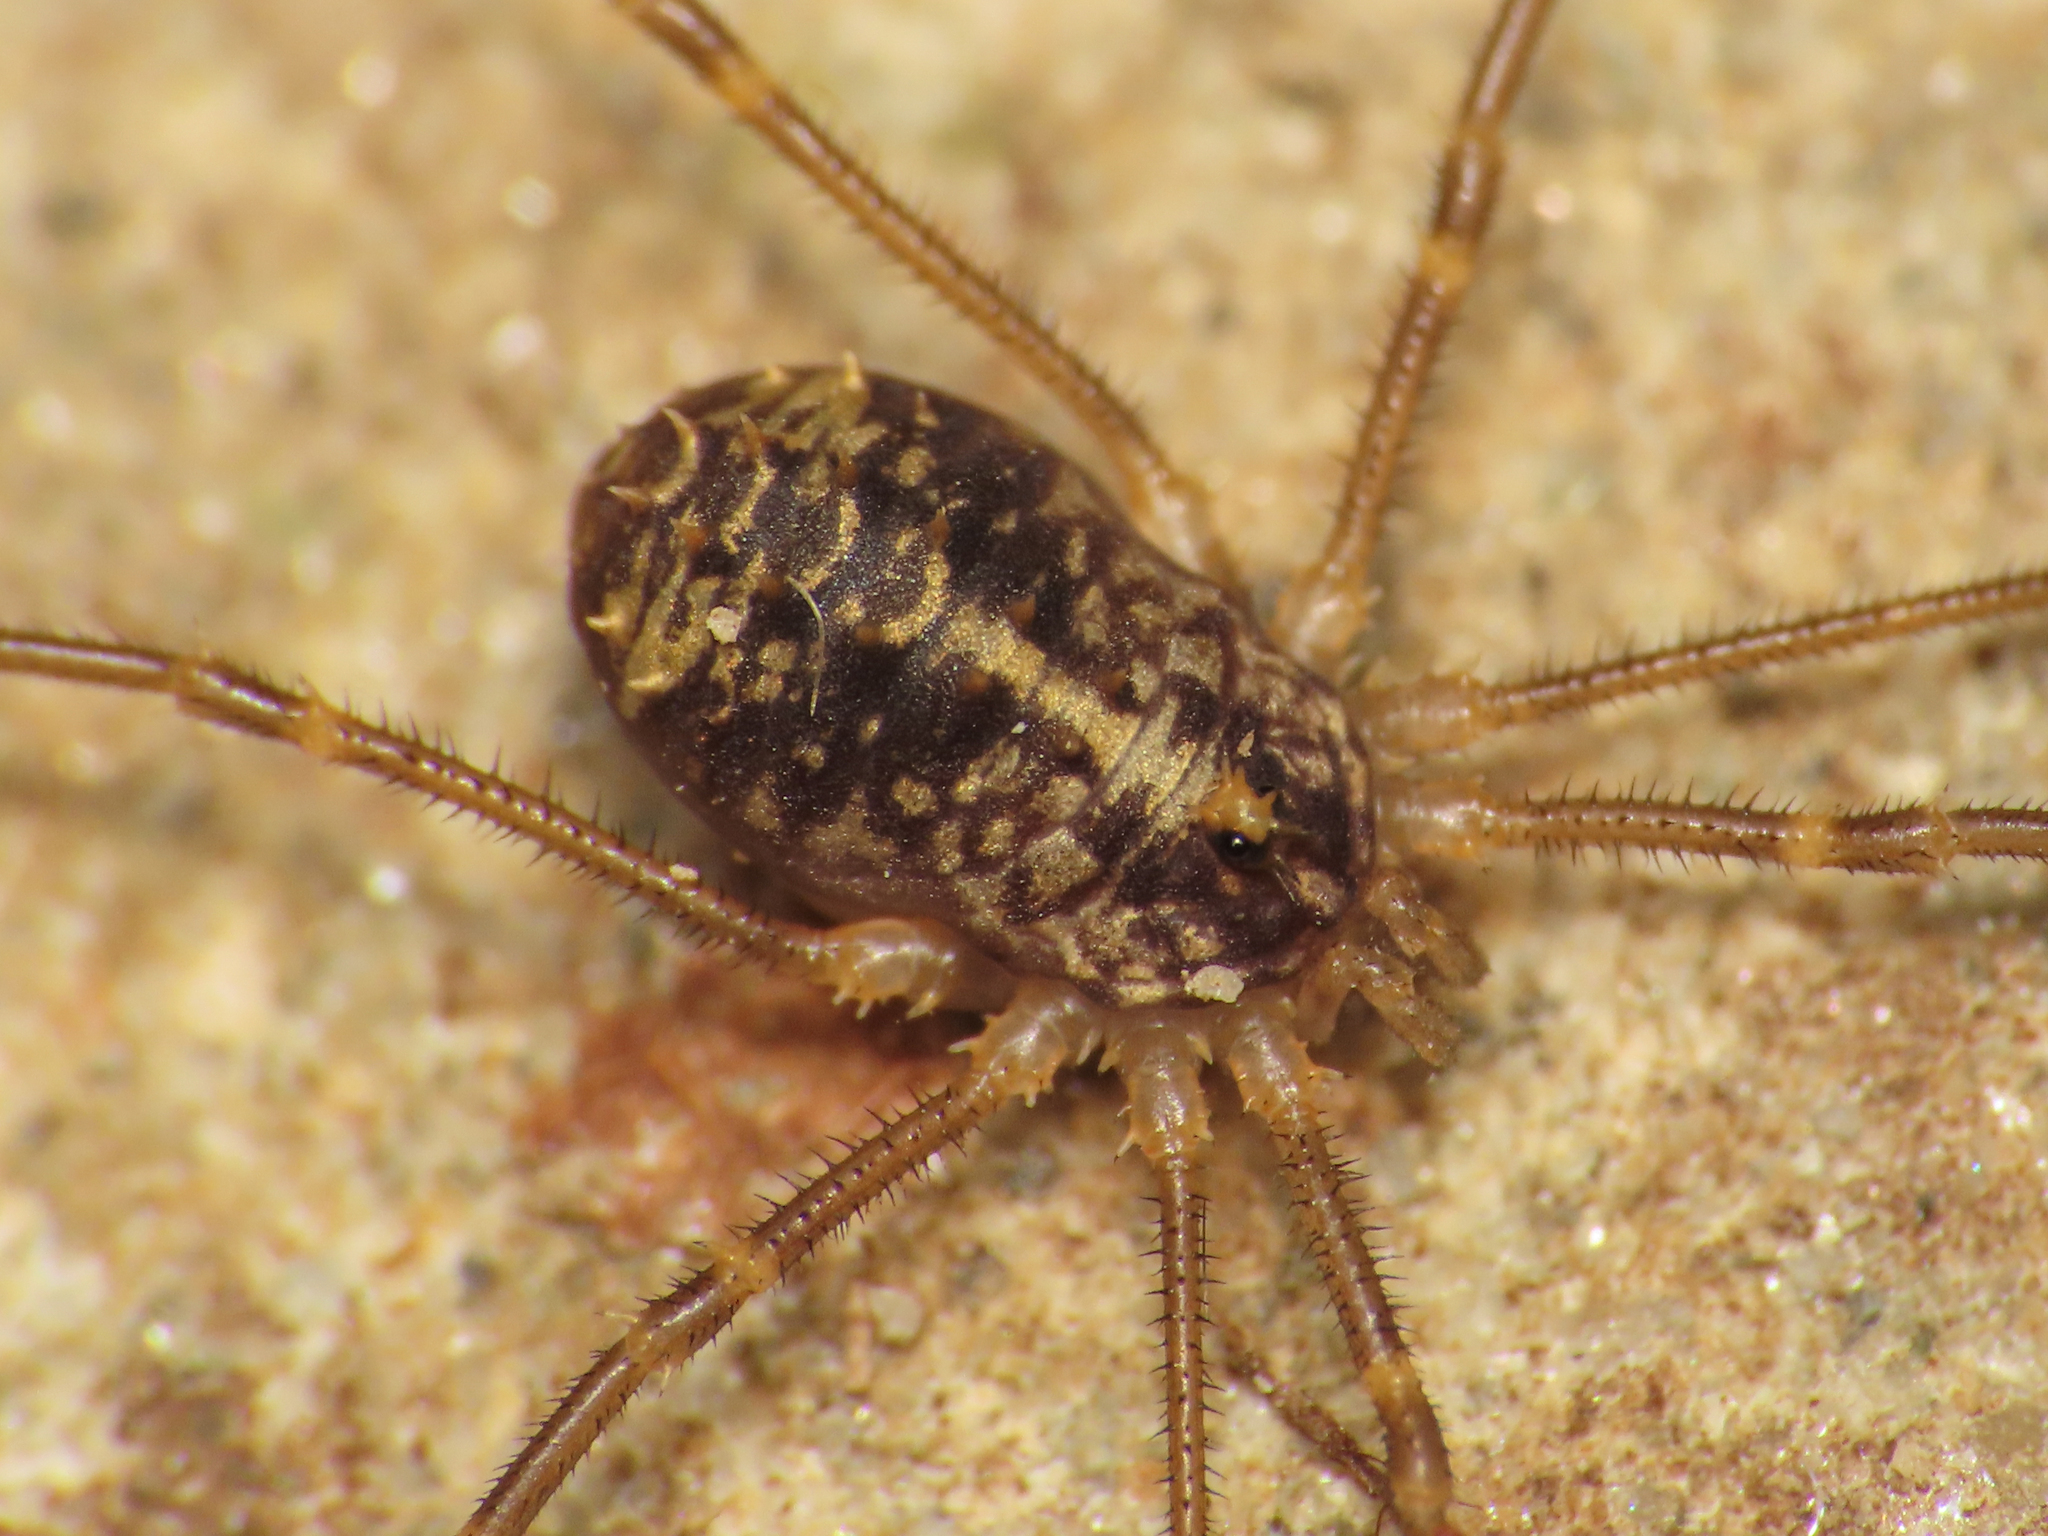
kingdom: Animalia
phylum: Arthropoda
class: Arachnida
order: Opiliones
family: Sclerosomatidae
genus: Astrobunus
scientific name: Astrobunus kochii
